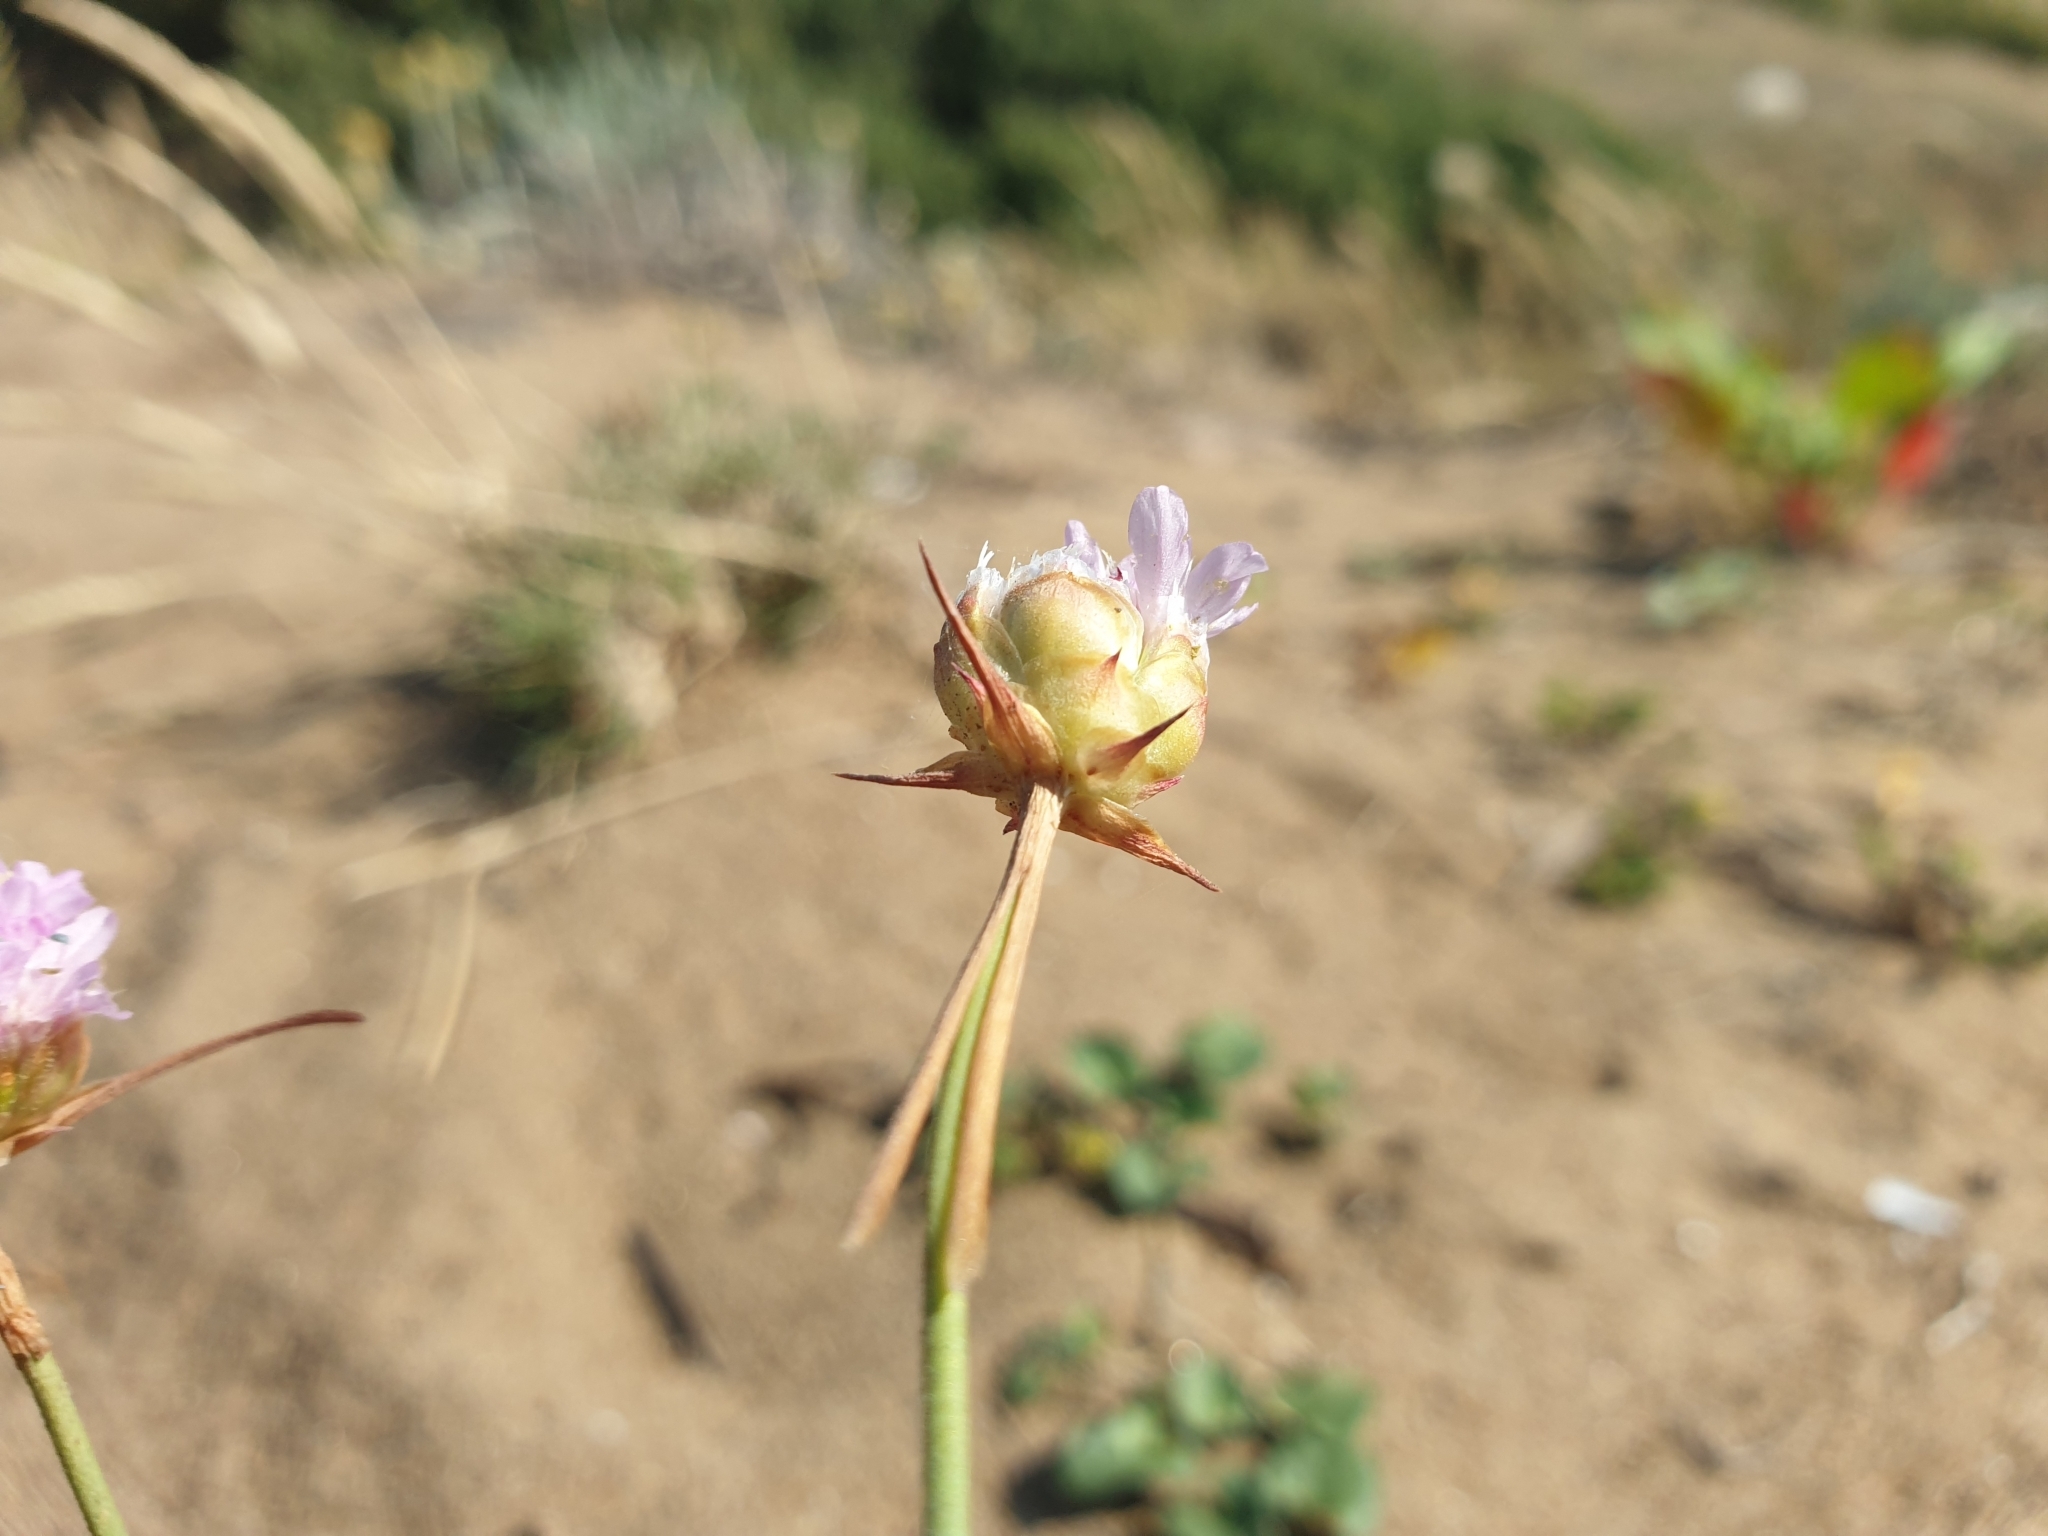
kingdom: Plantae
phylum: Tracheophyta
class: Magnoliopsida
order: Caryophyllales
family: Plumbaginaceae
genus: Armeria
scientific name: Armeria maritima
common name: Thrift
